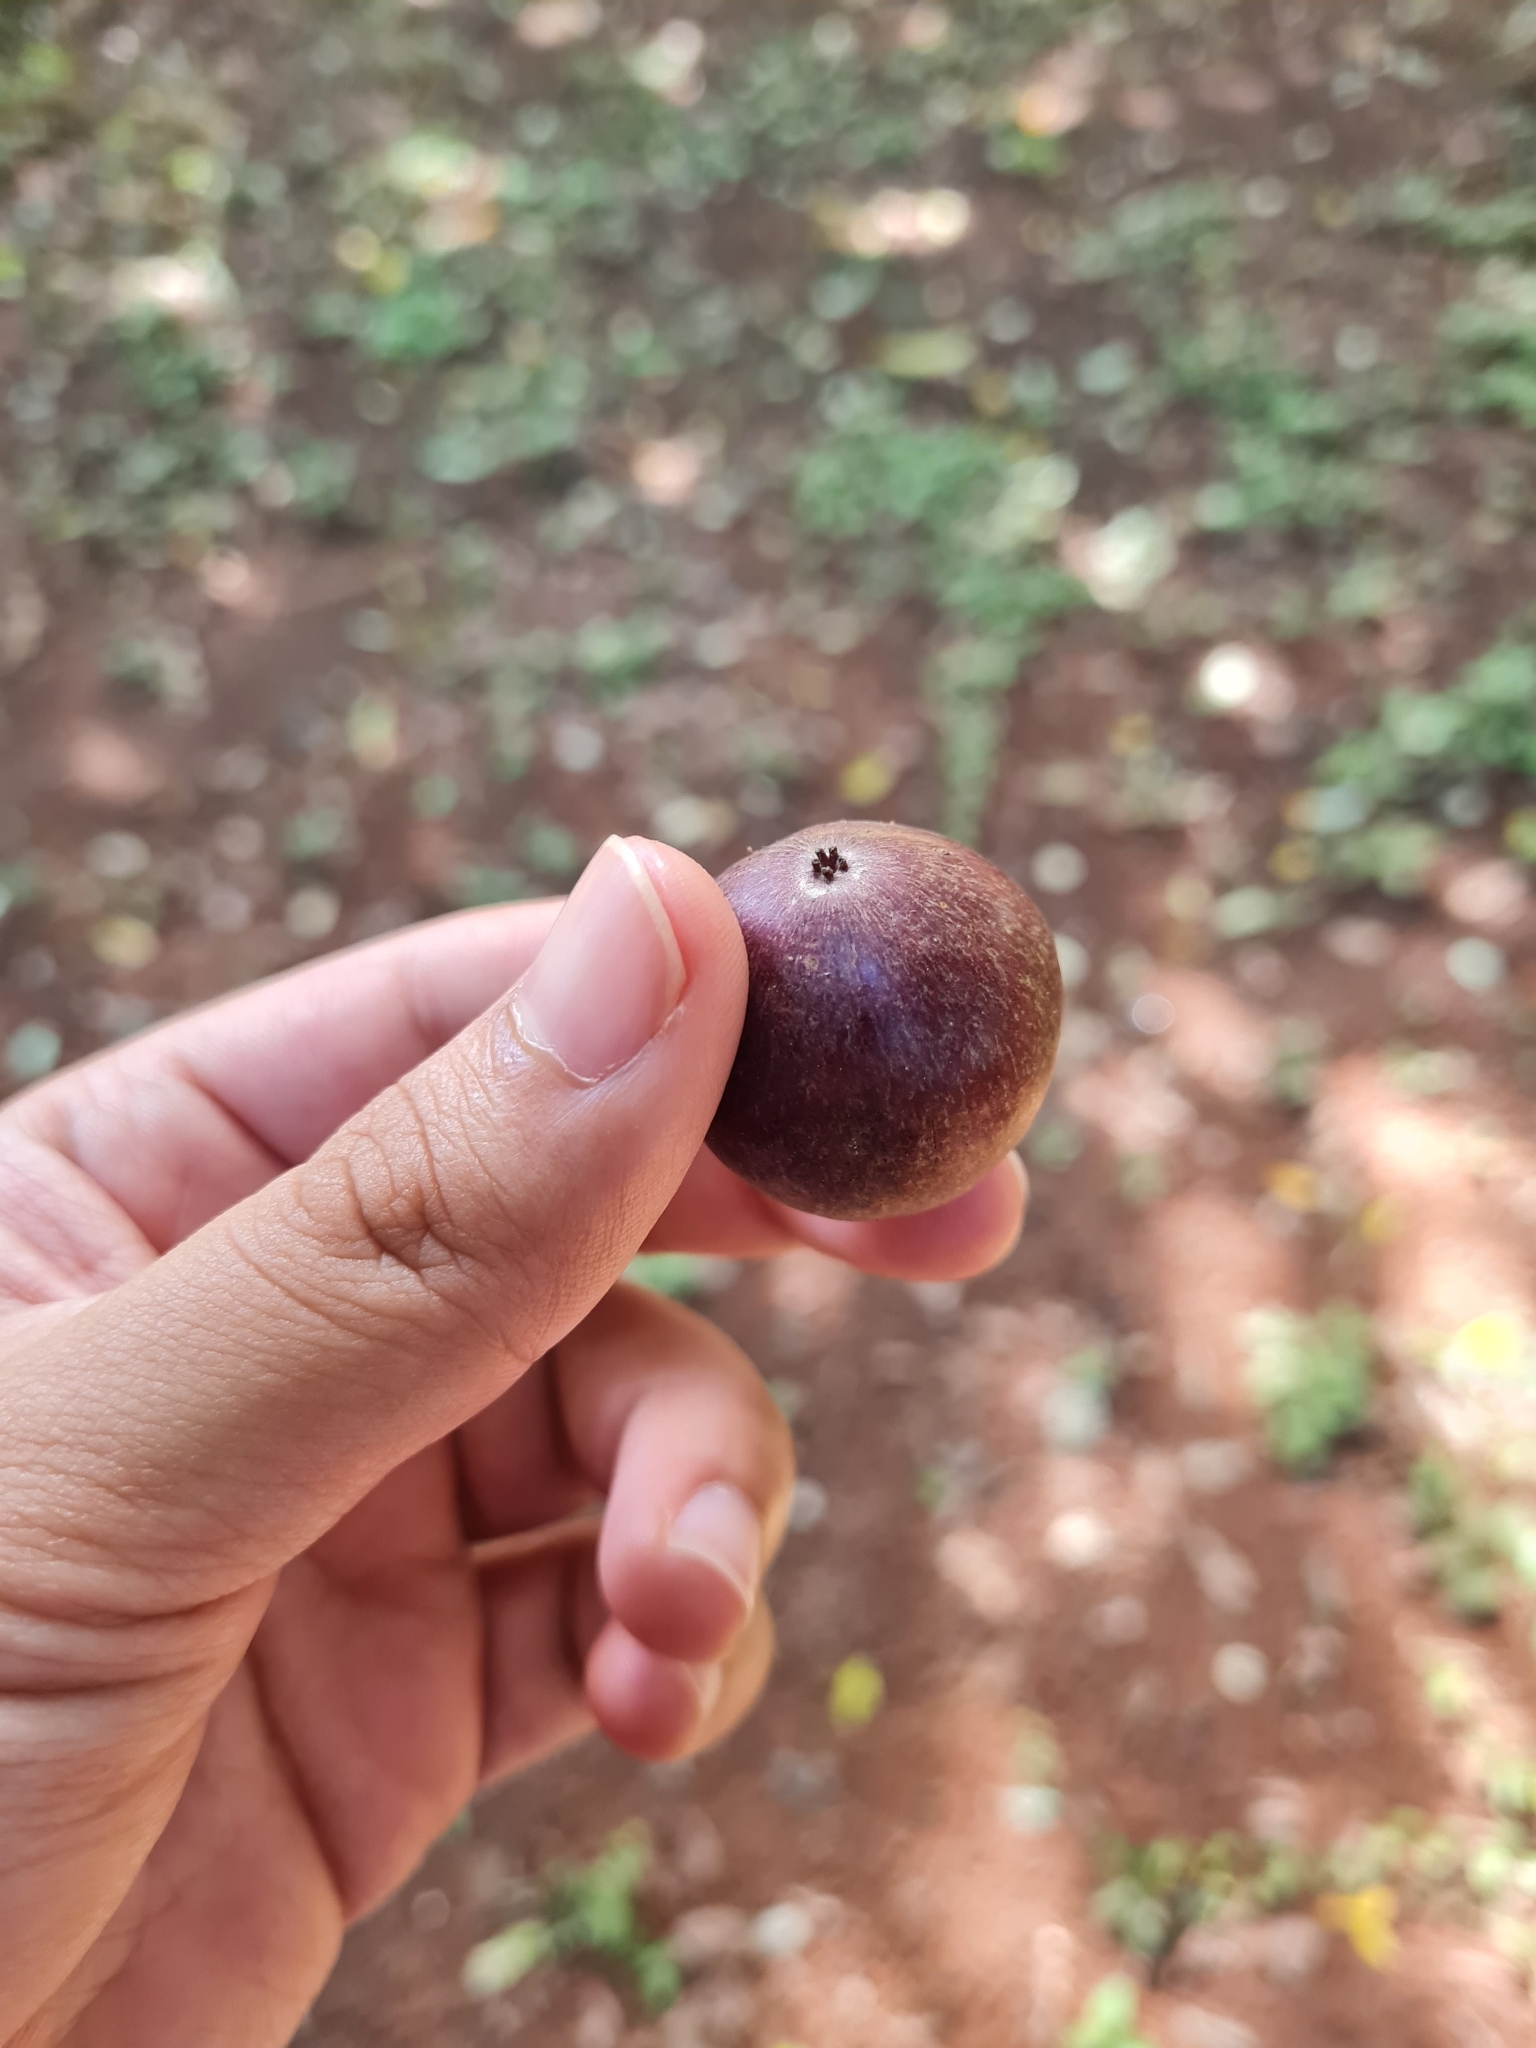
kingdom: Plantae
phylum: Tracheophyta
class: Magnoliopsida
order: Malpighiales
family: Salicaceae
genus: Flacourtia
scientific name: Flacourtia jangomas
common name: Indian-plum
